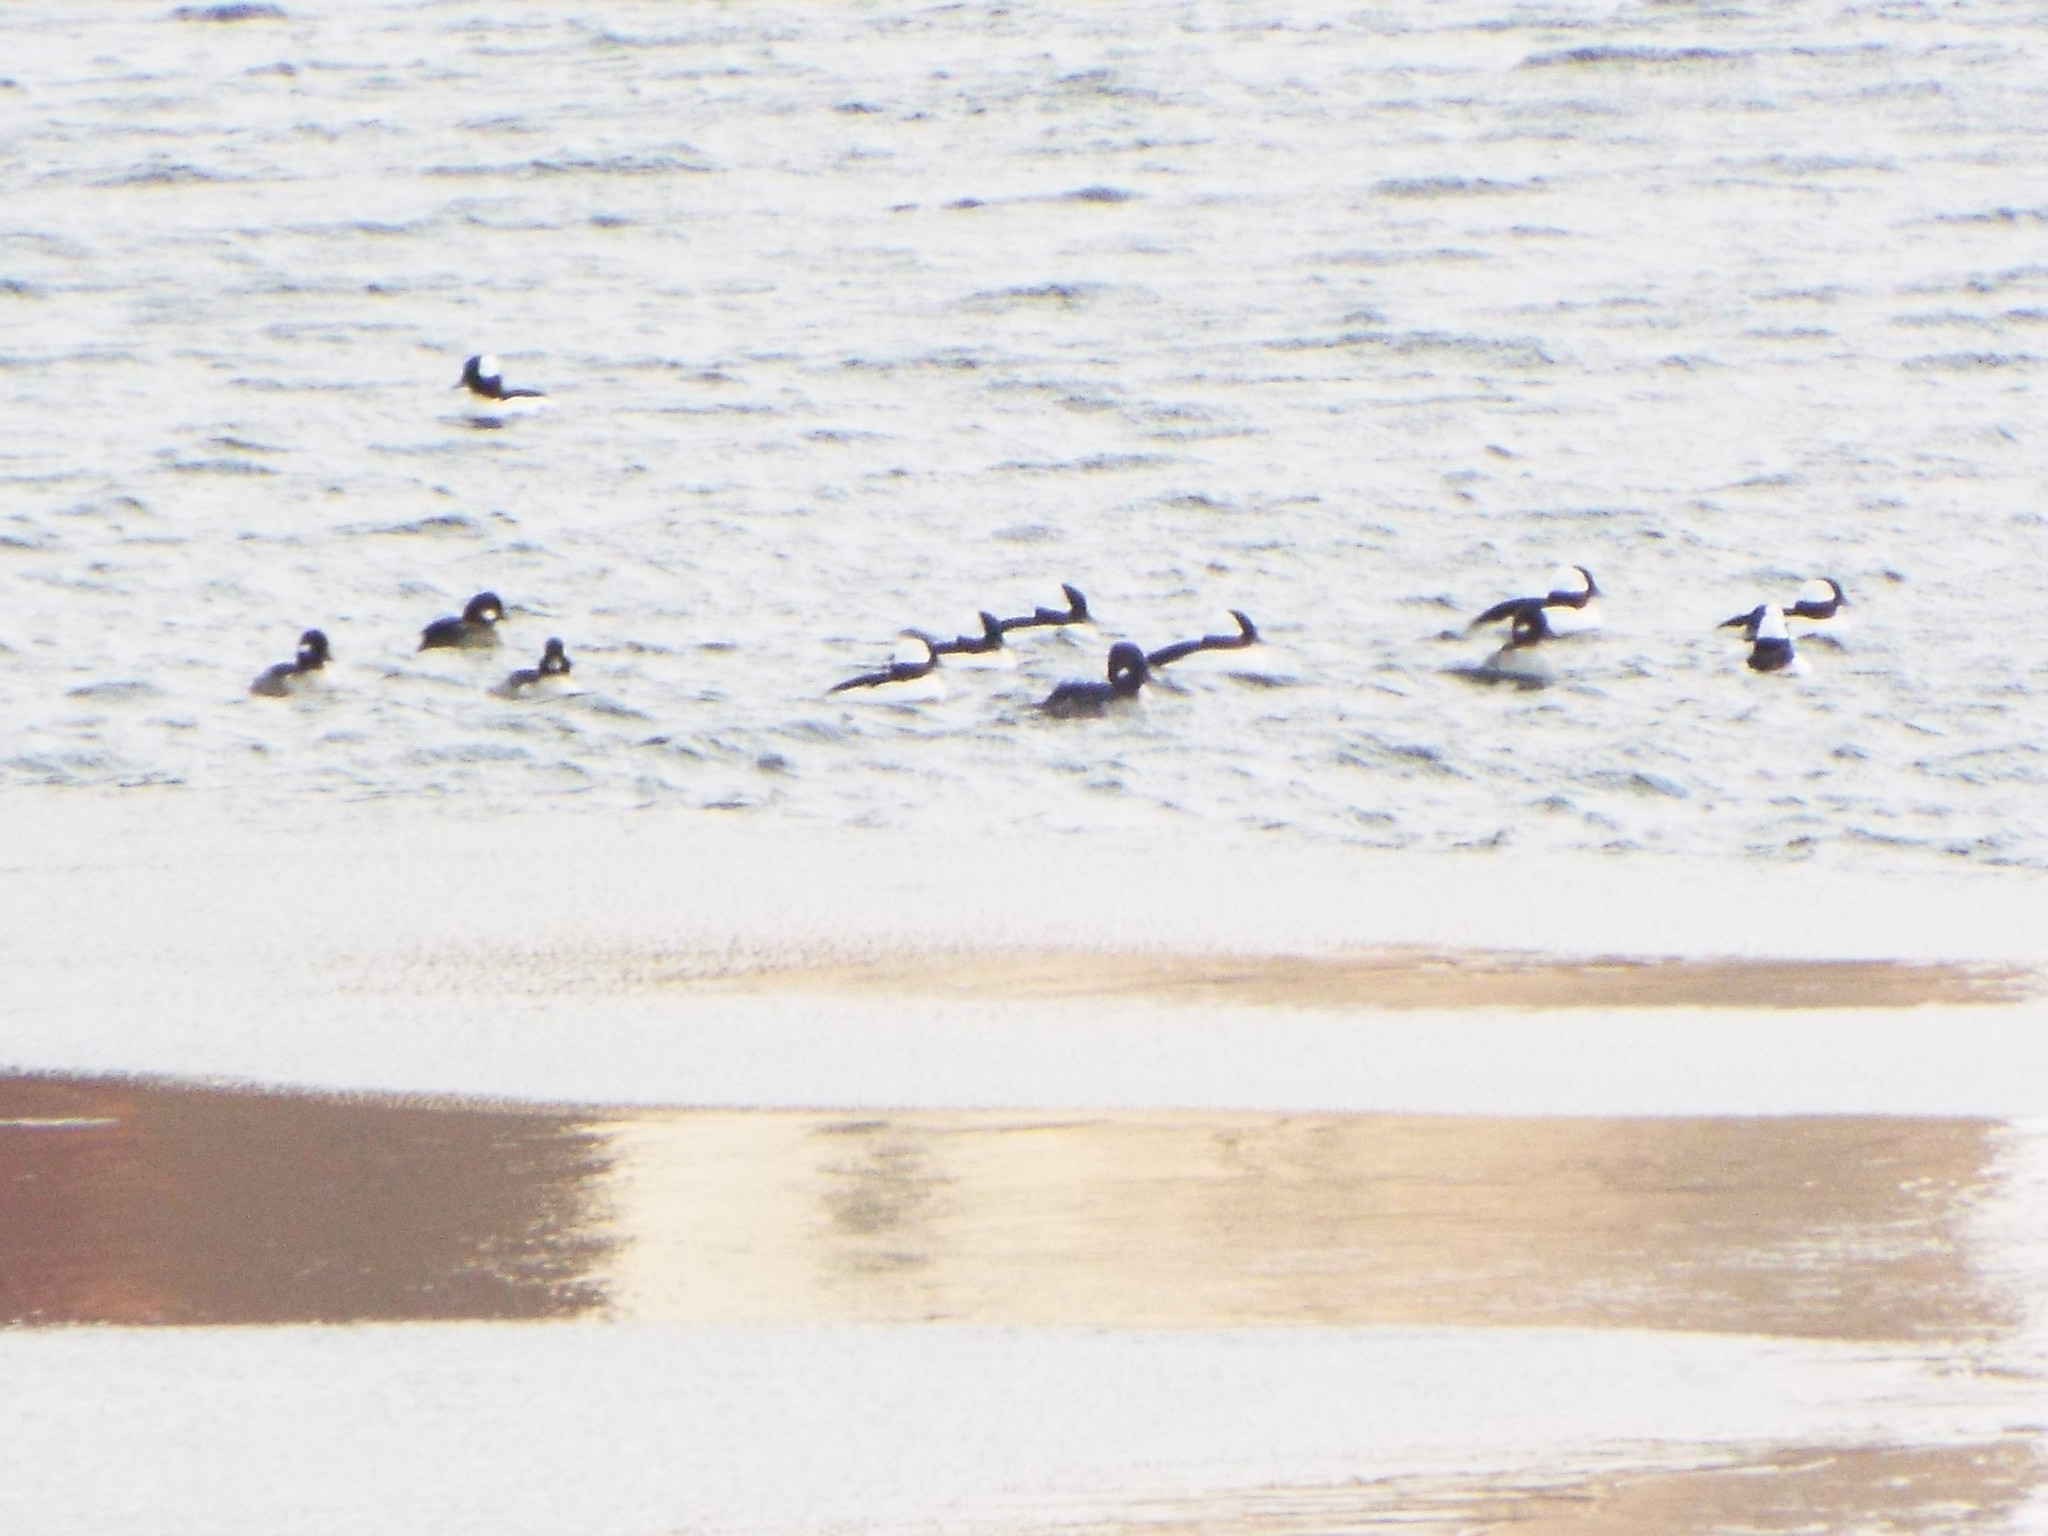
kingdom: Animalia
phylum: Chordata
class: Aves
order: Anseriformes
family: Anatidae
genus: Bucephala
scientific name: Bucephala albeola
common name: Bufflehead
